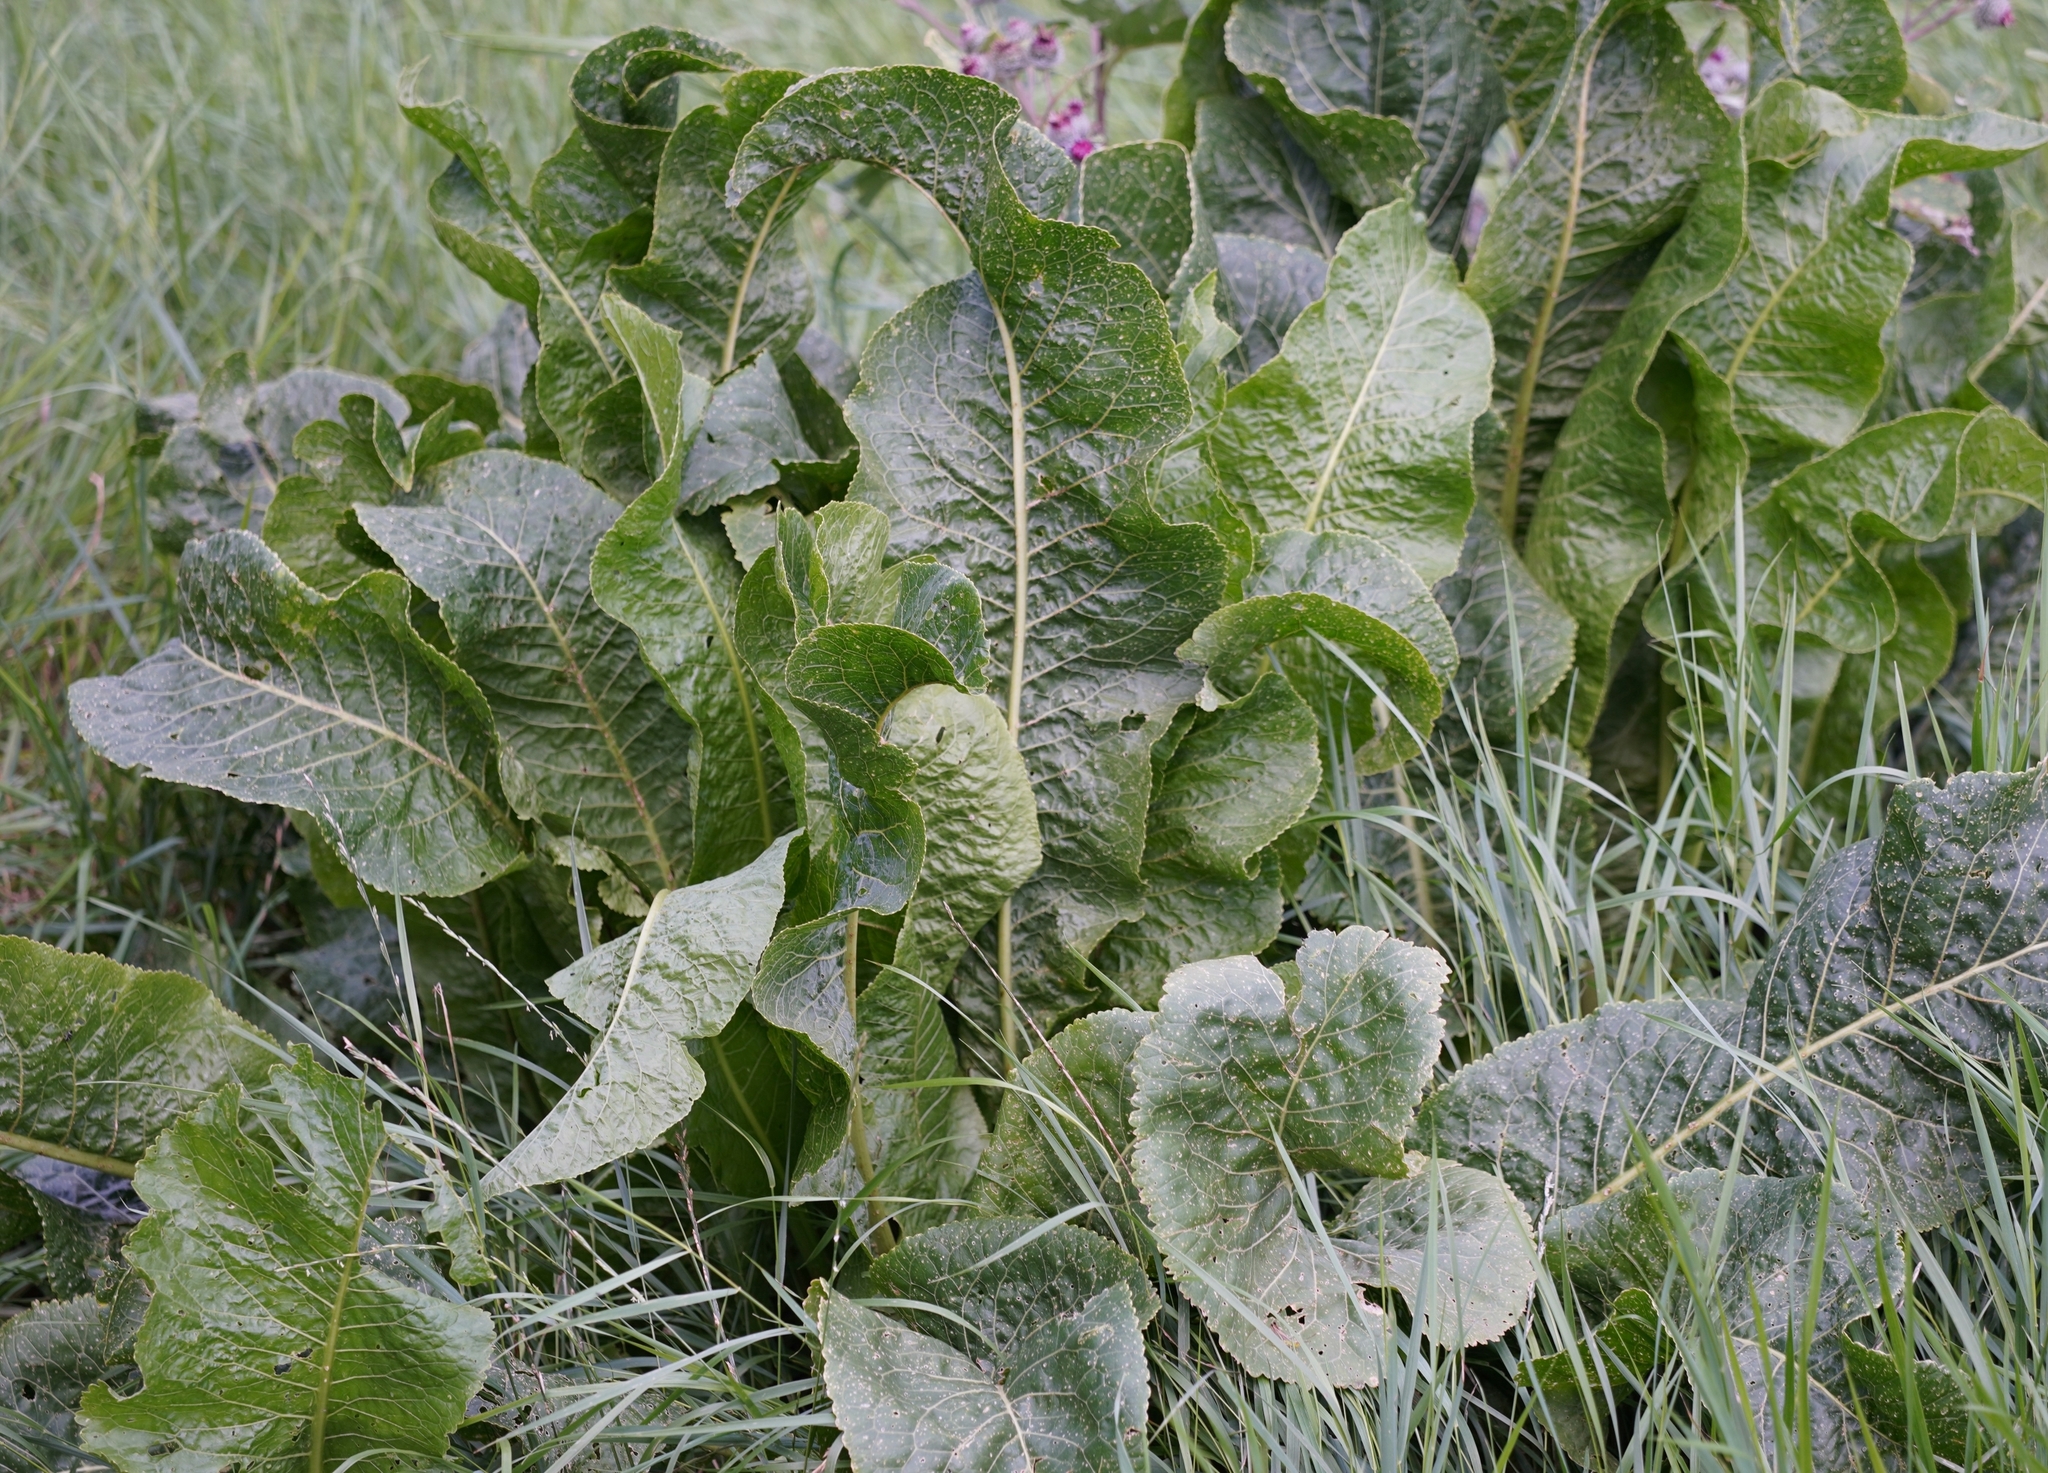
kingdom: Plantae
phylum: Tracheophyta
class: Magnoliopsida
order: Brassicales
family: Brassicaceae
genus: Armoracia
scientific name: Armoracia rusticana
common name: Horseradish
